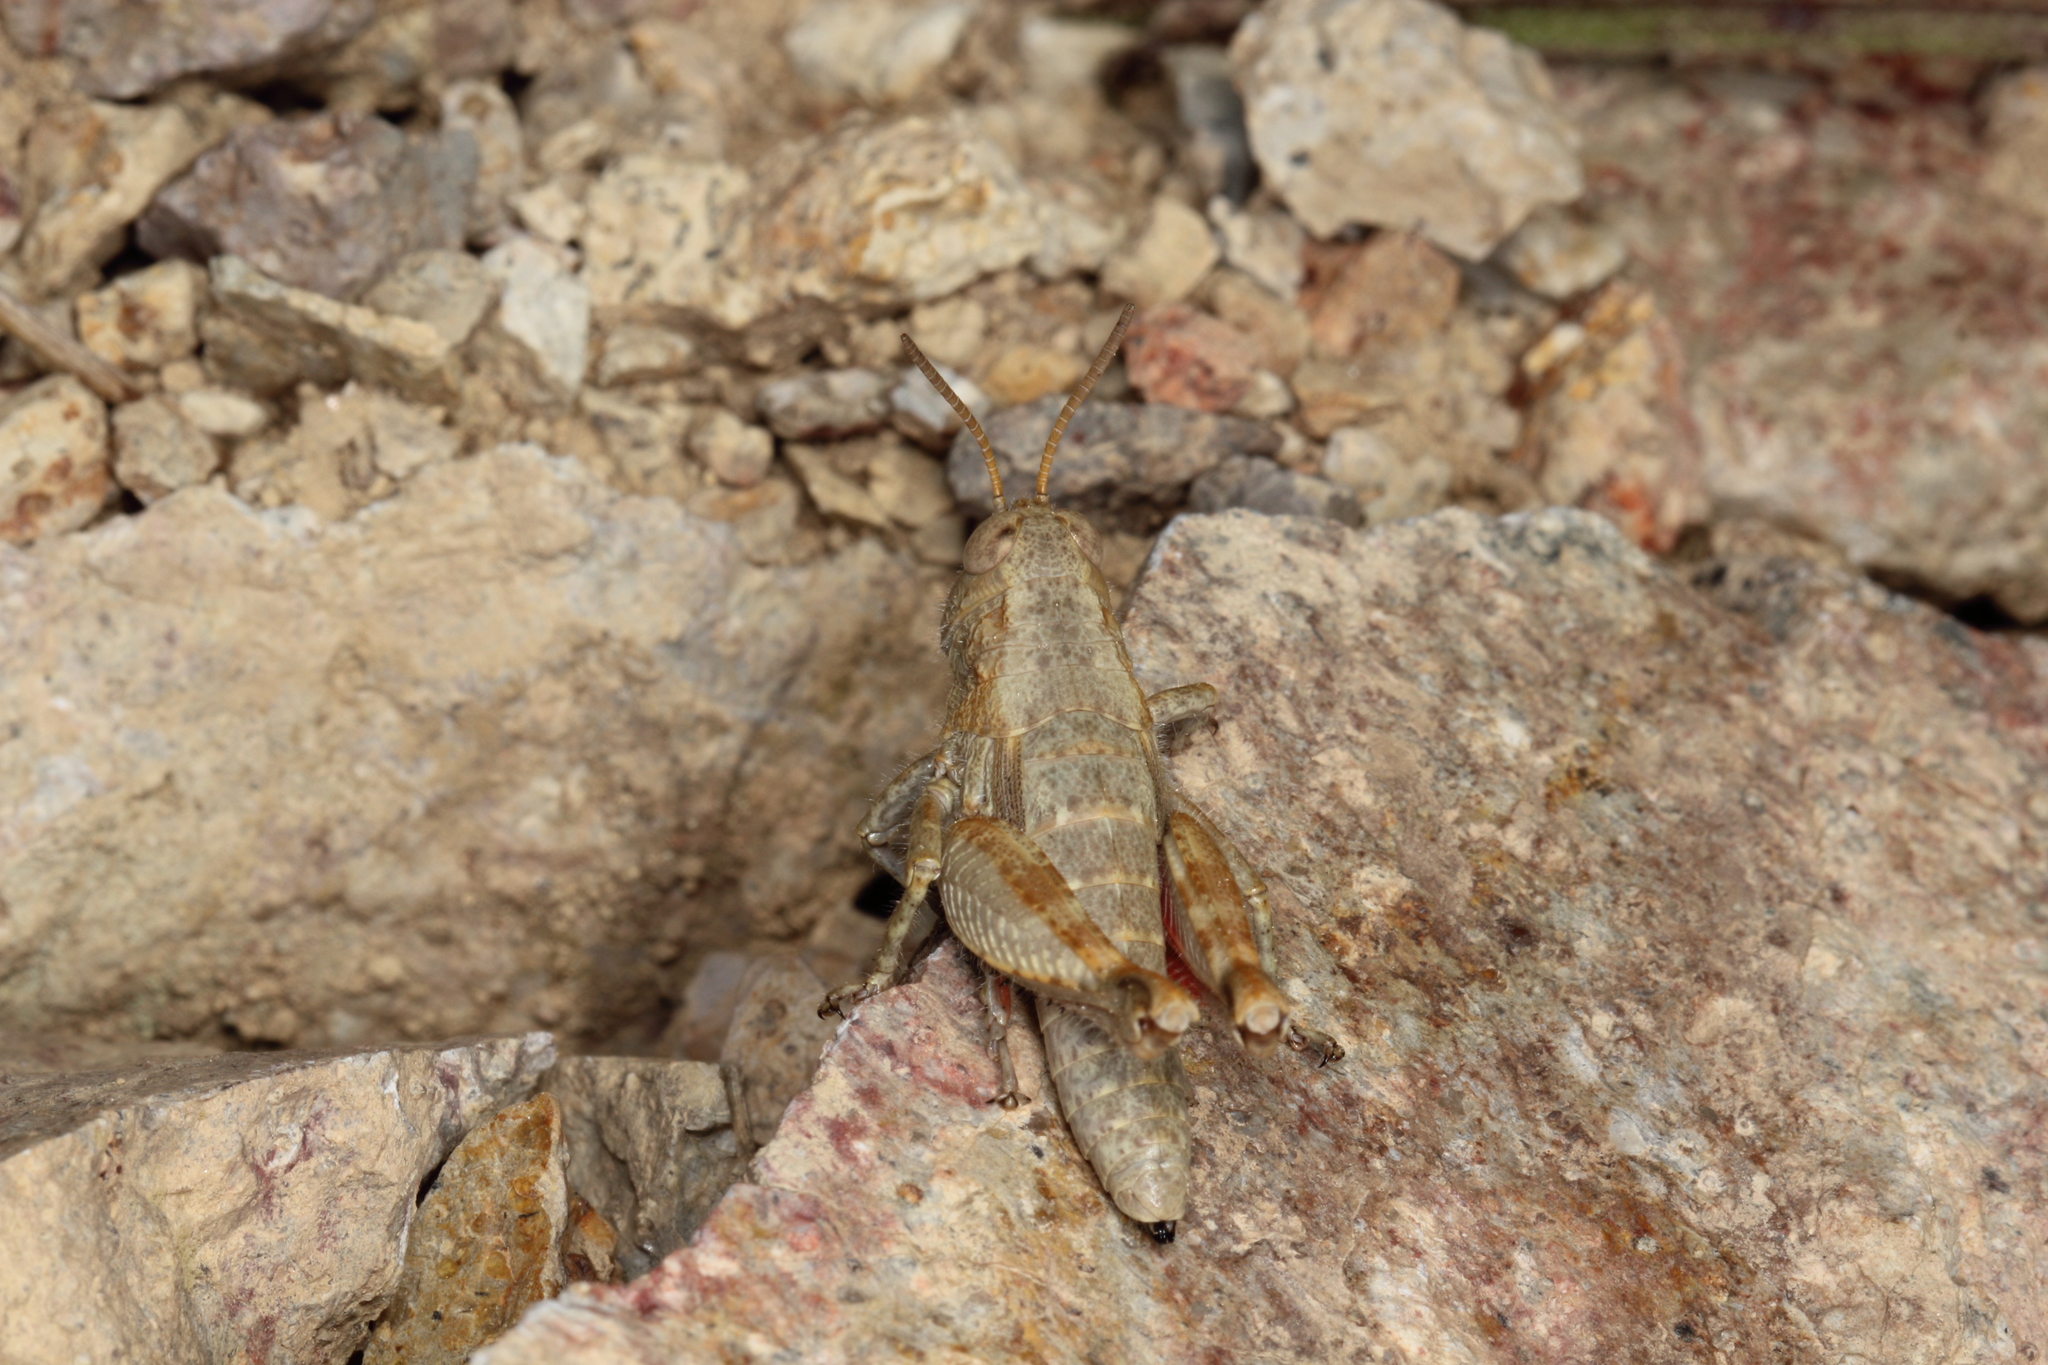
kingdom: Animalia
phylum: Arthropoda
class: Insecta
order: Orthoptera
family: Acrididae
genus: Sigaus
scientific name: Sigaus
